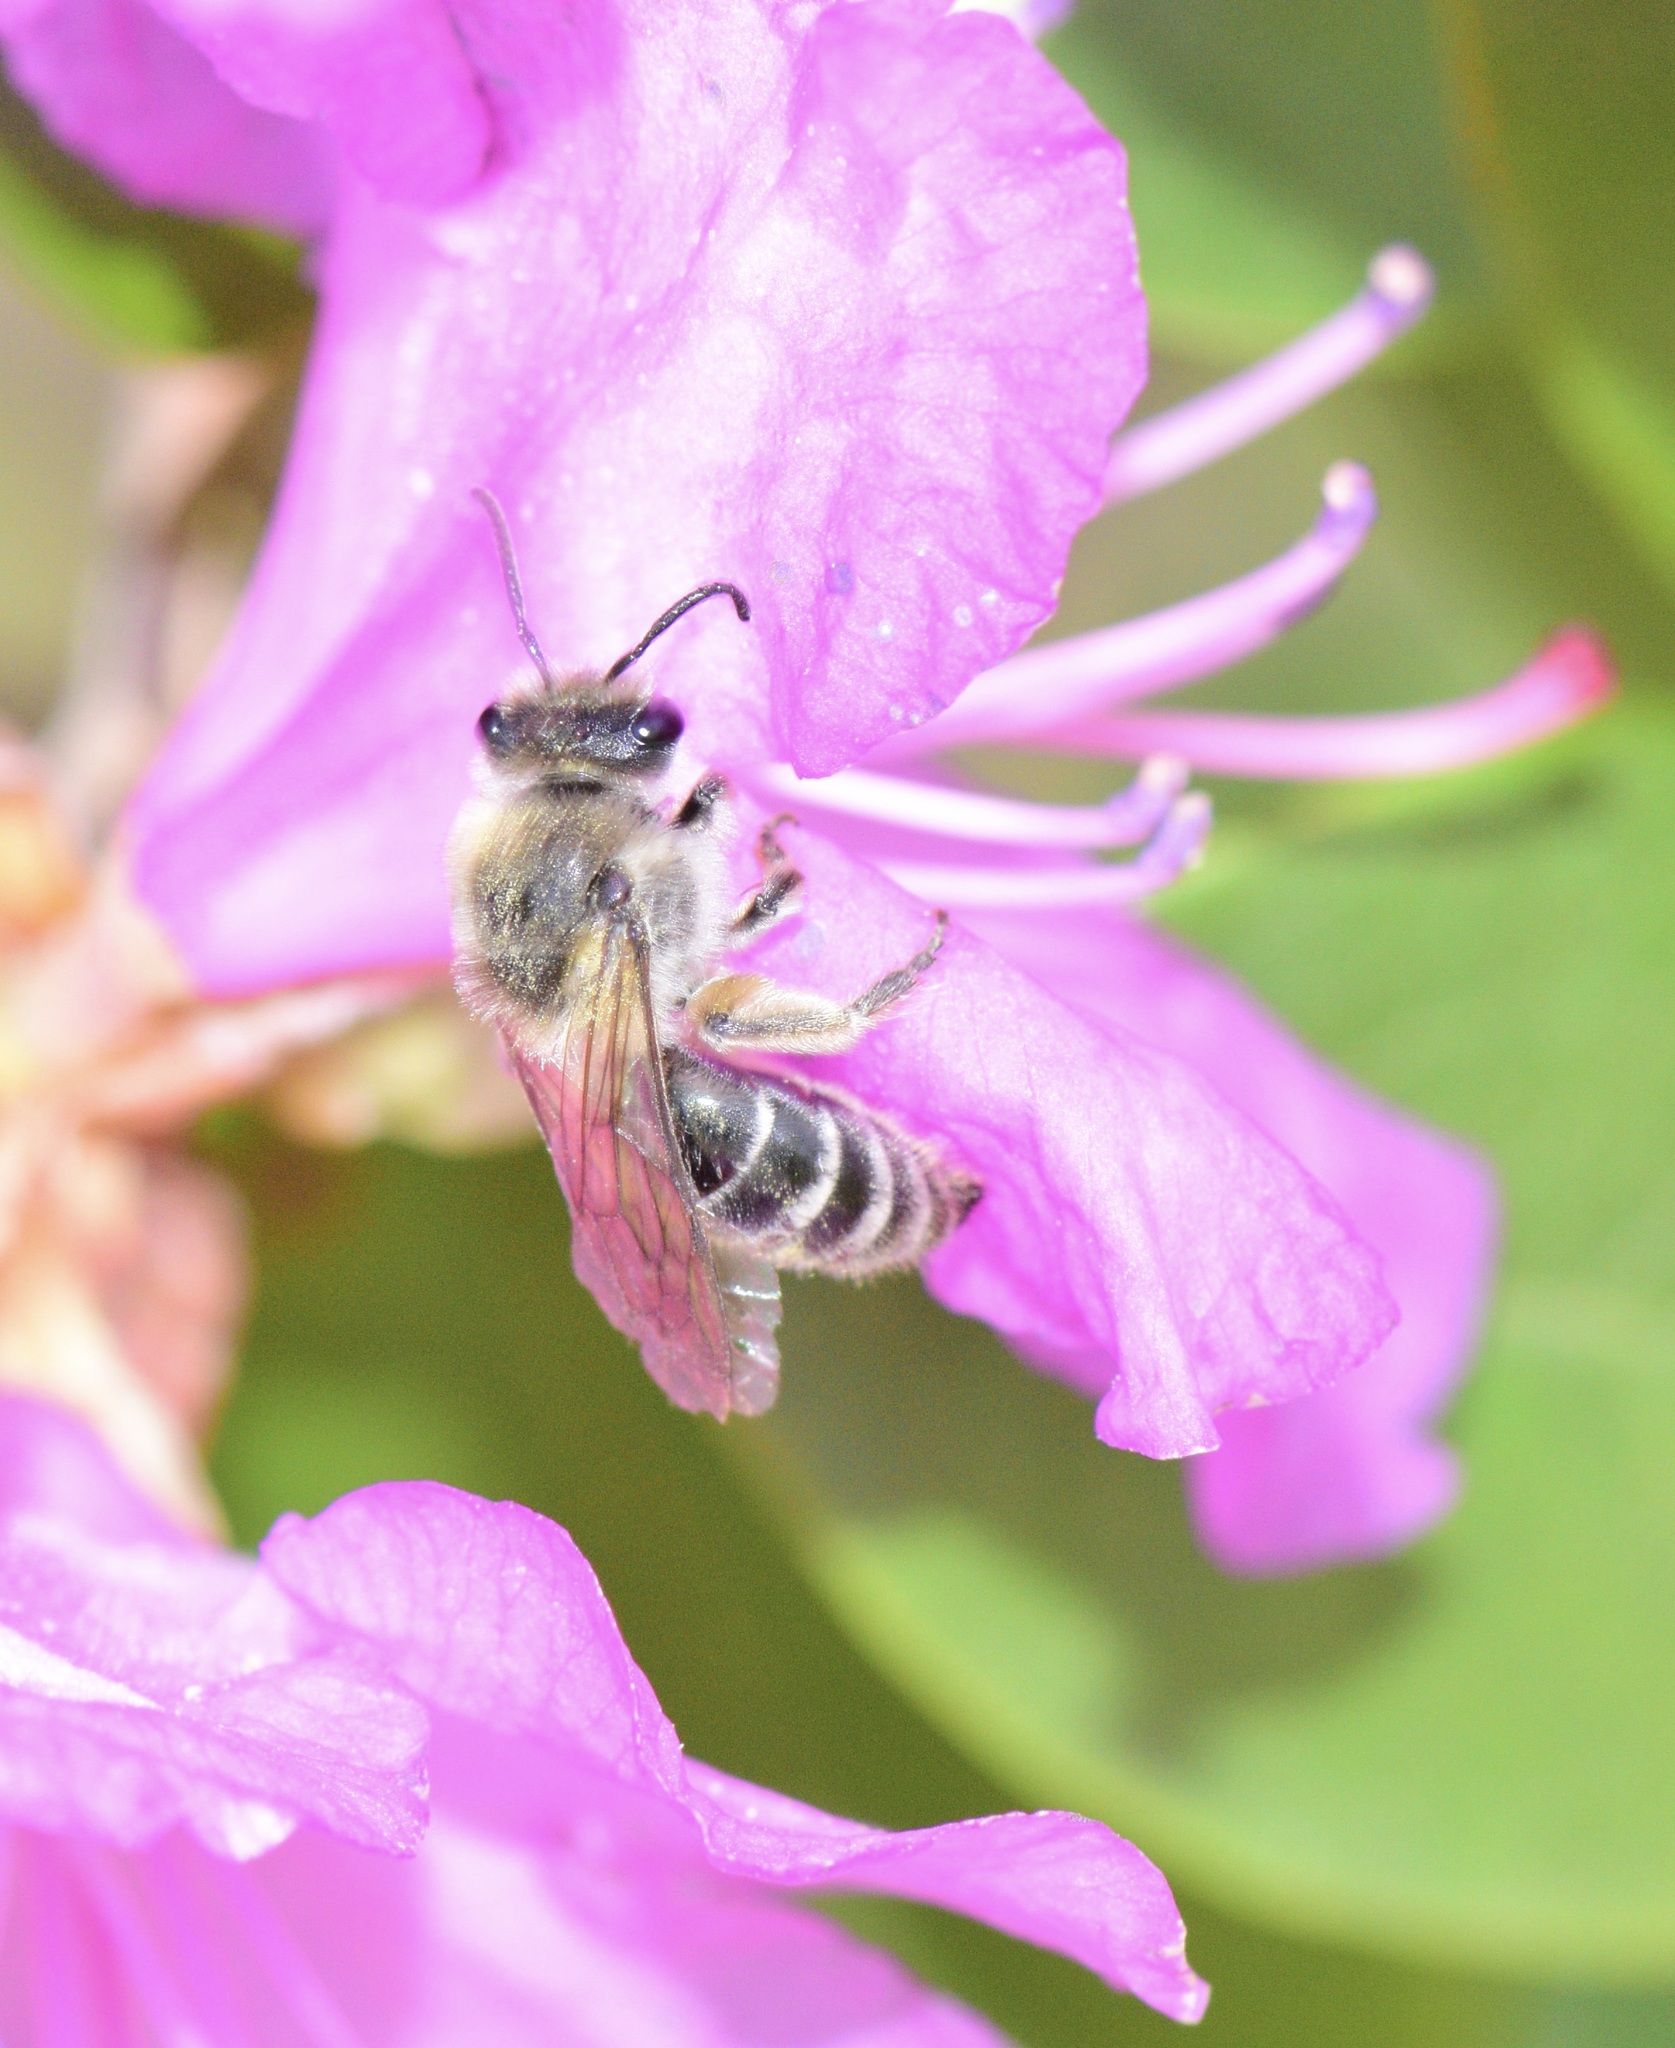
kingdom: Animalia
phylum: Arthropoda
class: Insecta
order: Hymenoptera
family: Colletidae
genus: Colletes
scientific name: Colletes inaequalis
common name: Unequal cellophane bee
